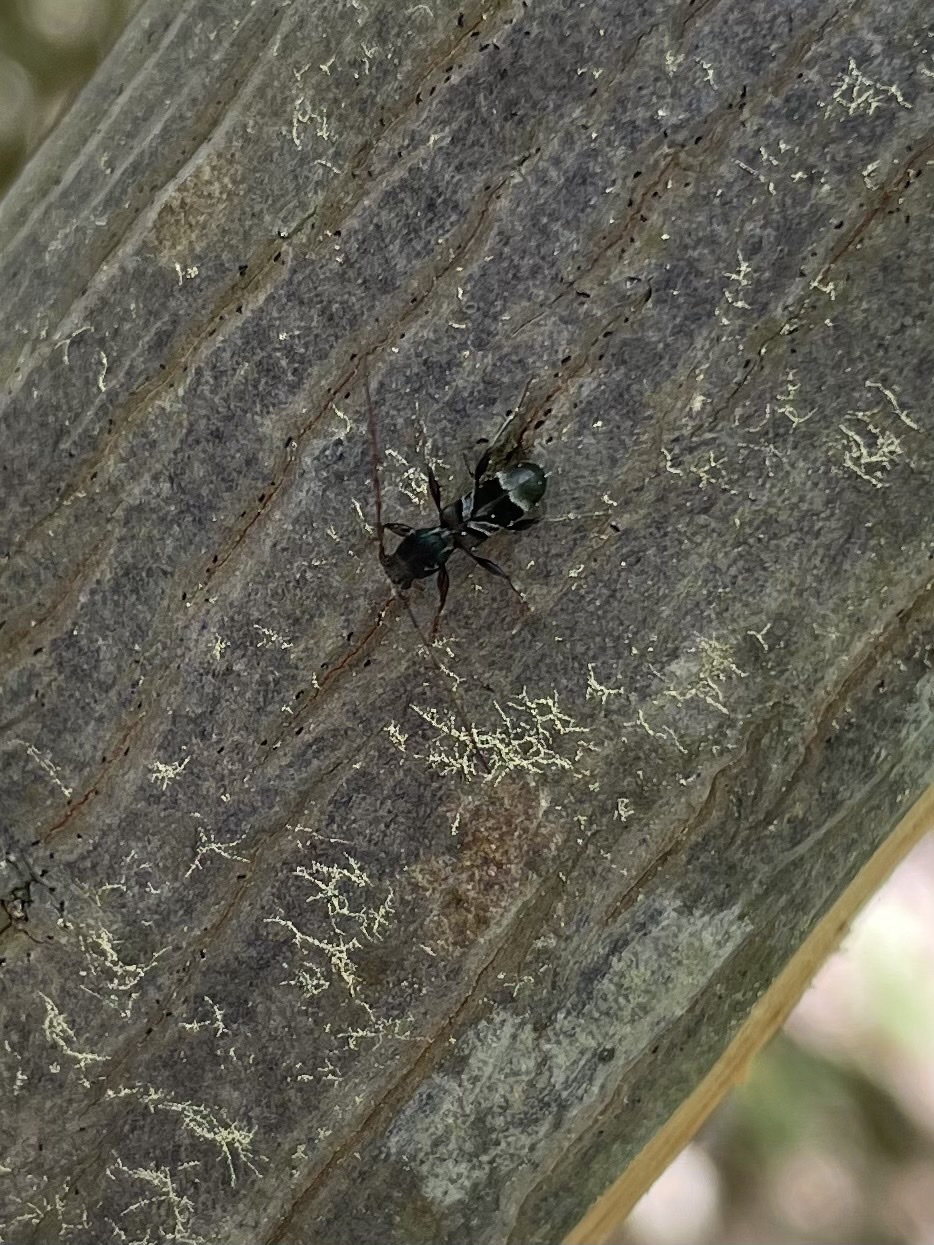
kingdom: Animalia
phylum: Arthropoda
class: Insecta
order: Coleoptera
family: Cerambycidae
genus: Tilloclytus
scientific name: Tilloclytus geminatus
